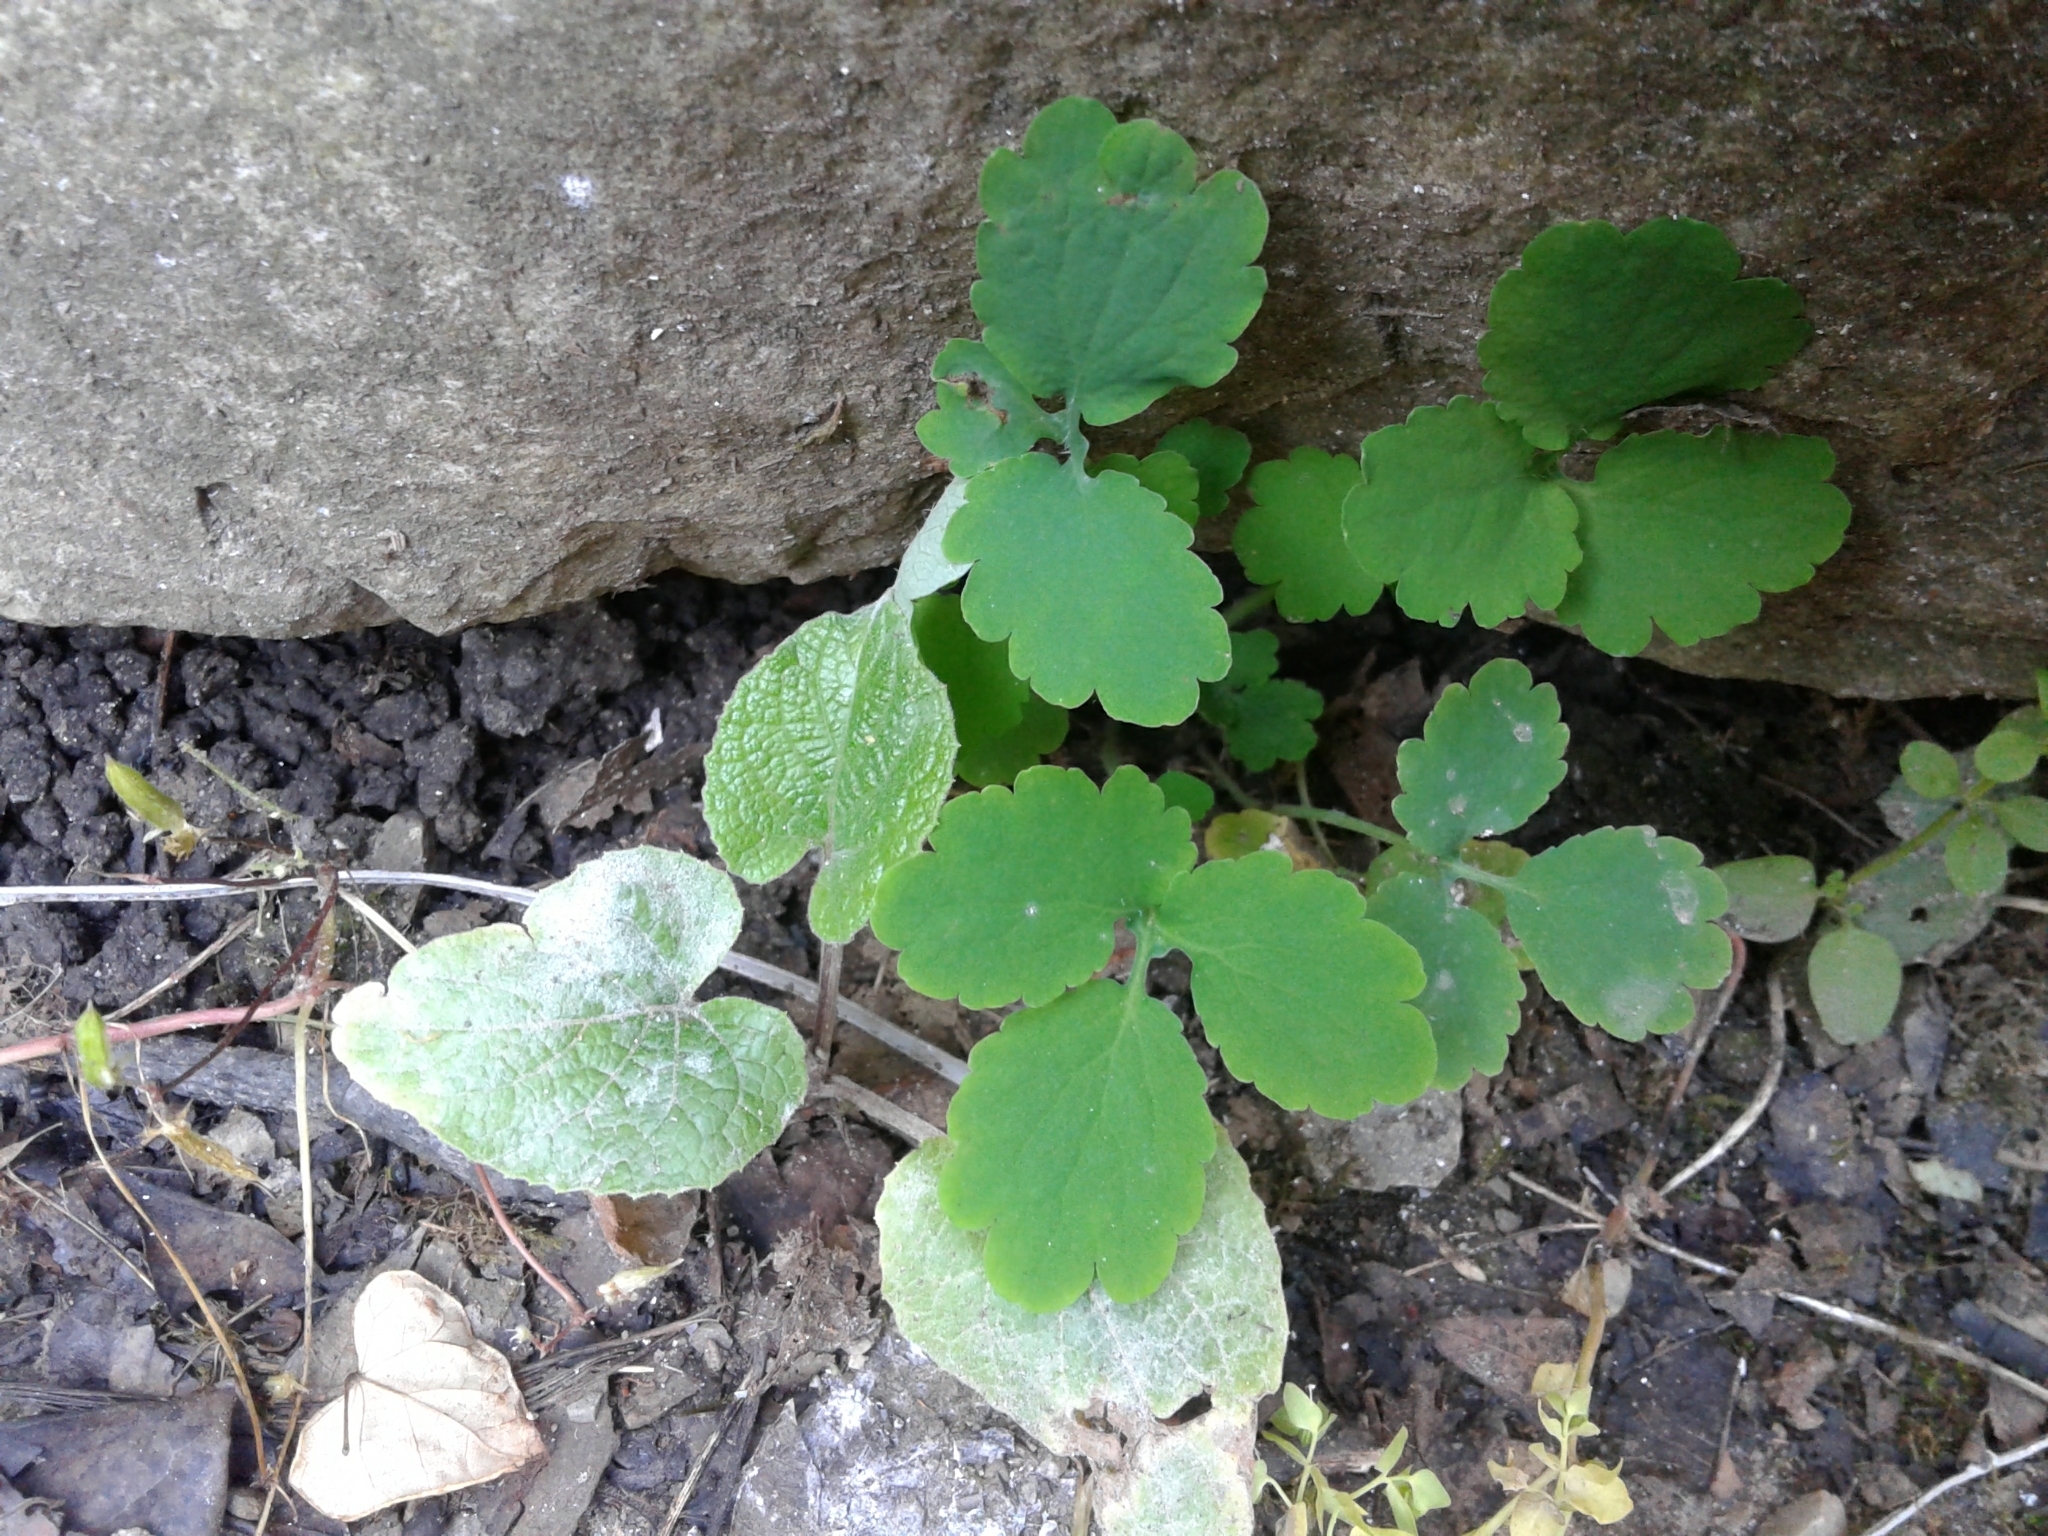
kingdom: Plantae
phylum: Tracheophyta
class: Magnoliopsida
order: Ranunculales
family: Papaveraceae
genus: Chelidonium
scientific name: Chelidonium majus
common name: Greater celandine
